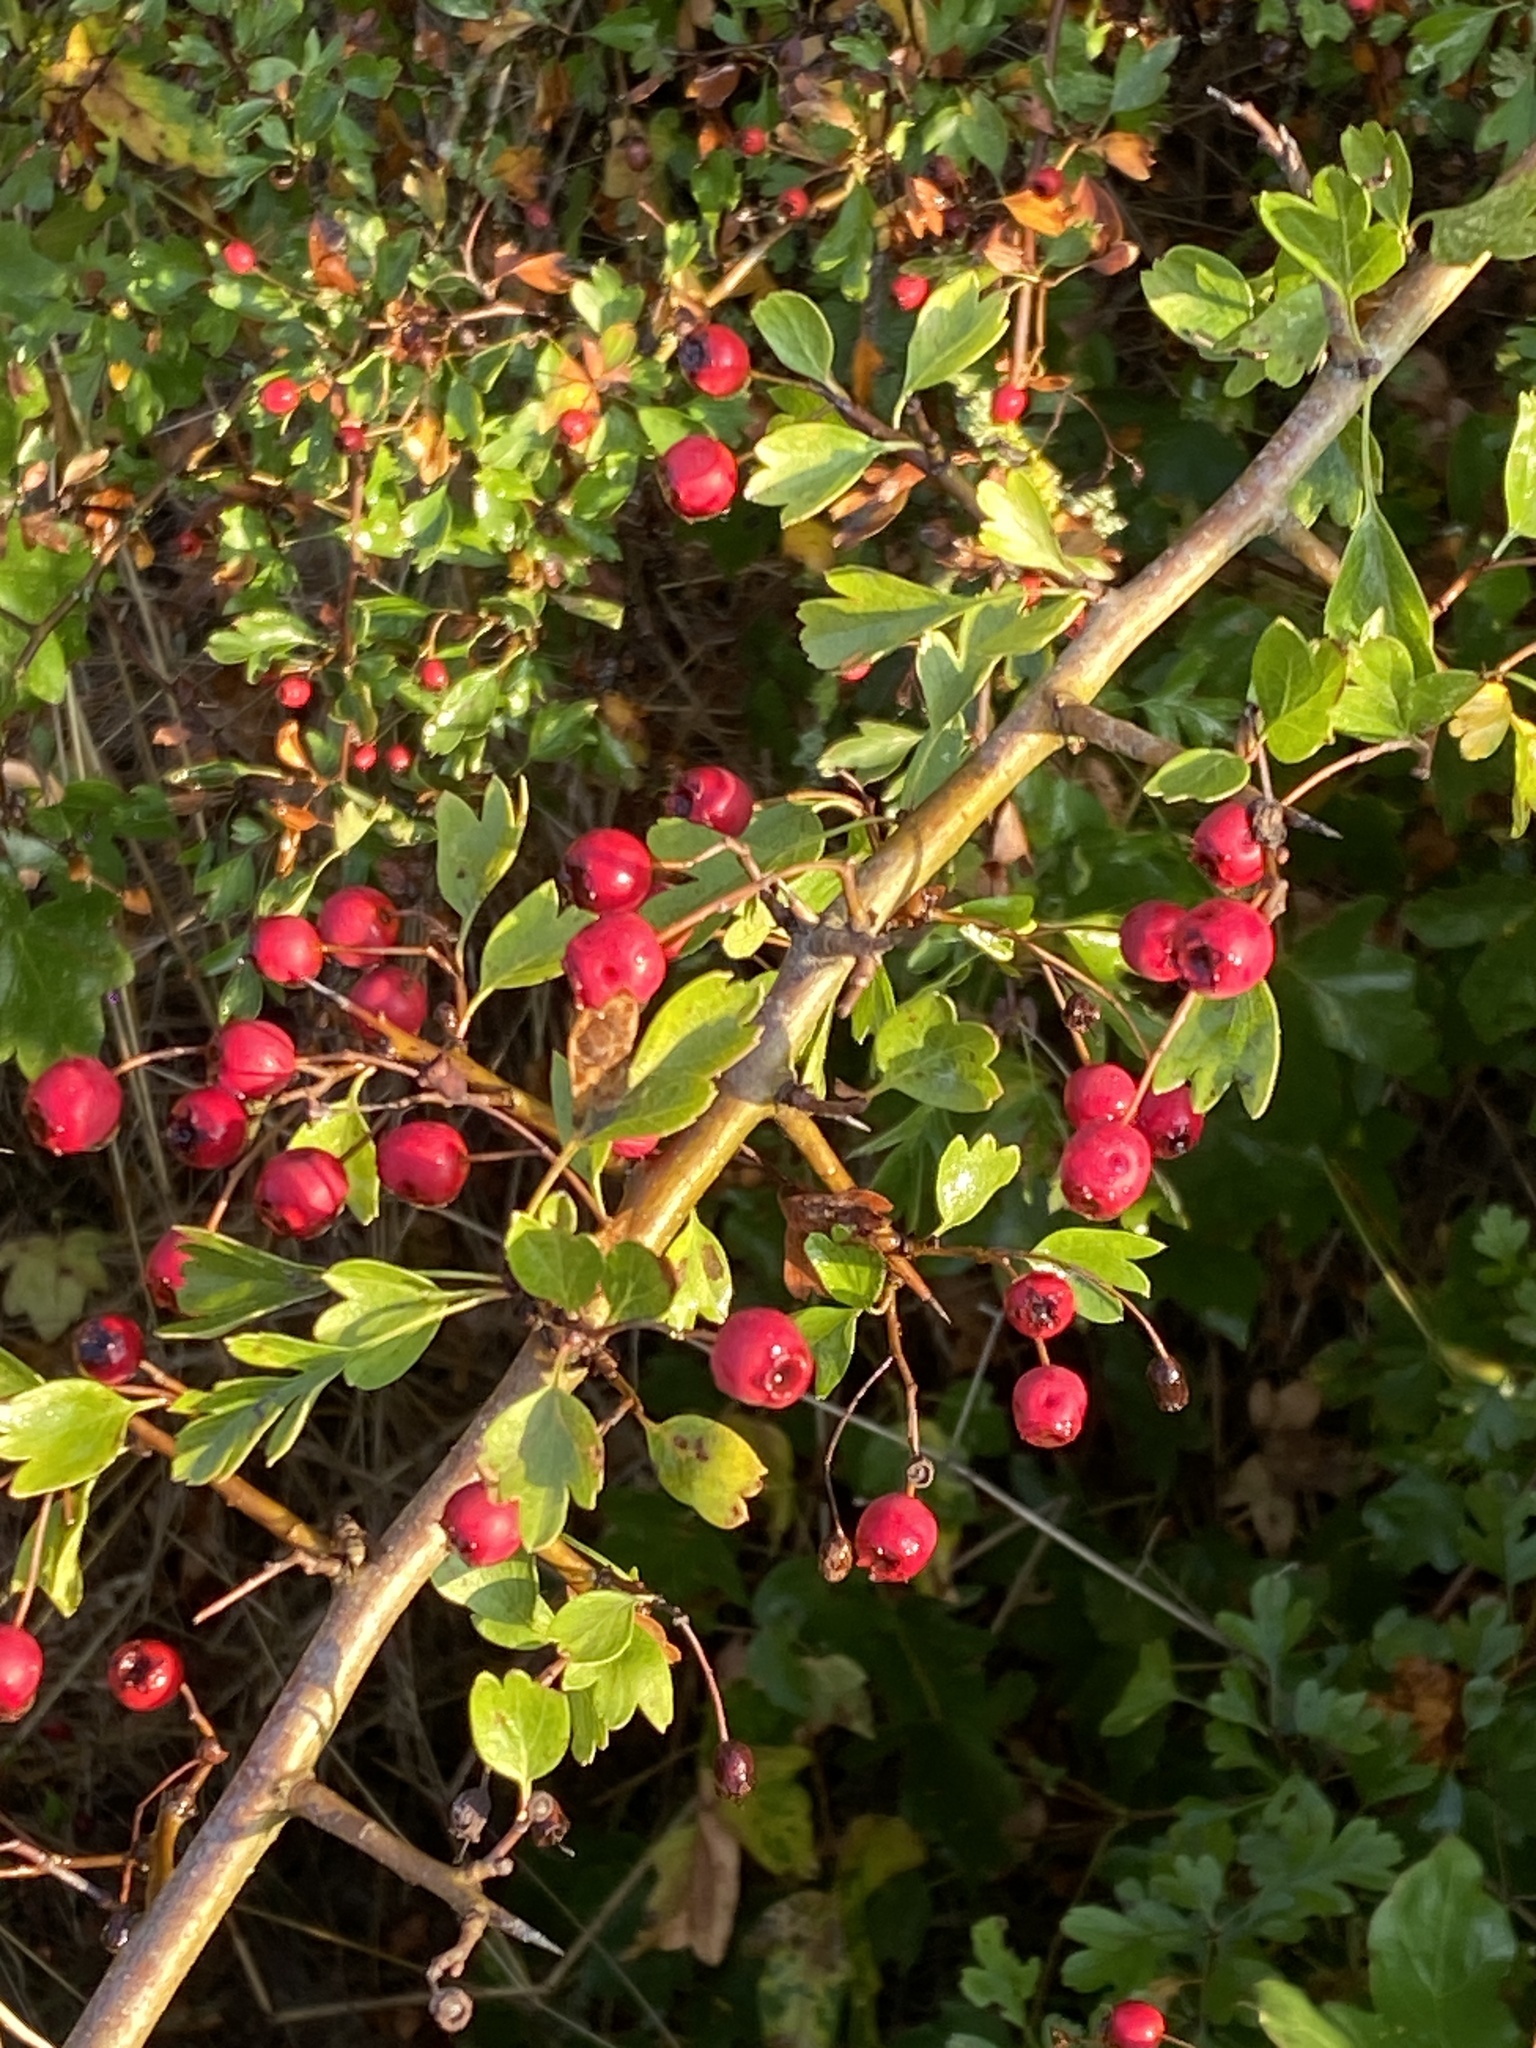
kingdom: Plantae
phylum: Tracheophyta
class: Magnoliopsida
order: Rosales
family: Rosaceae
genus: Crataegus
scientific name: Crataegus monogyna
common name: Hawthorn
